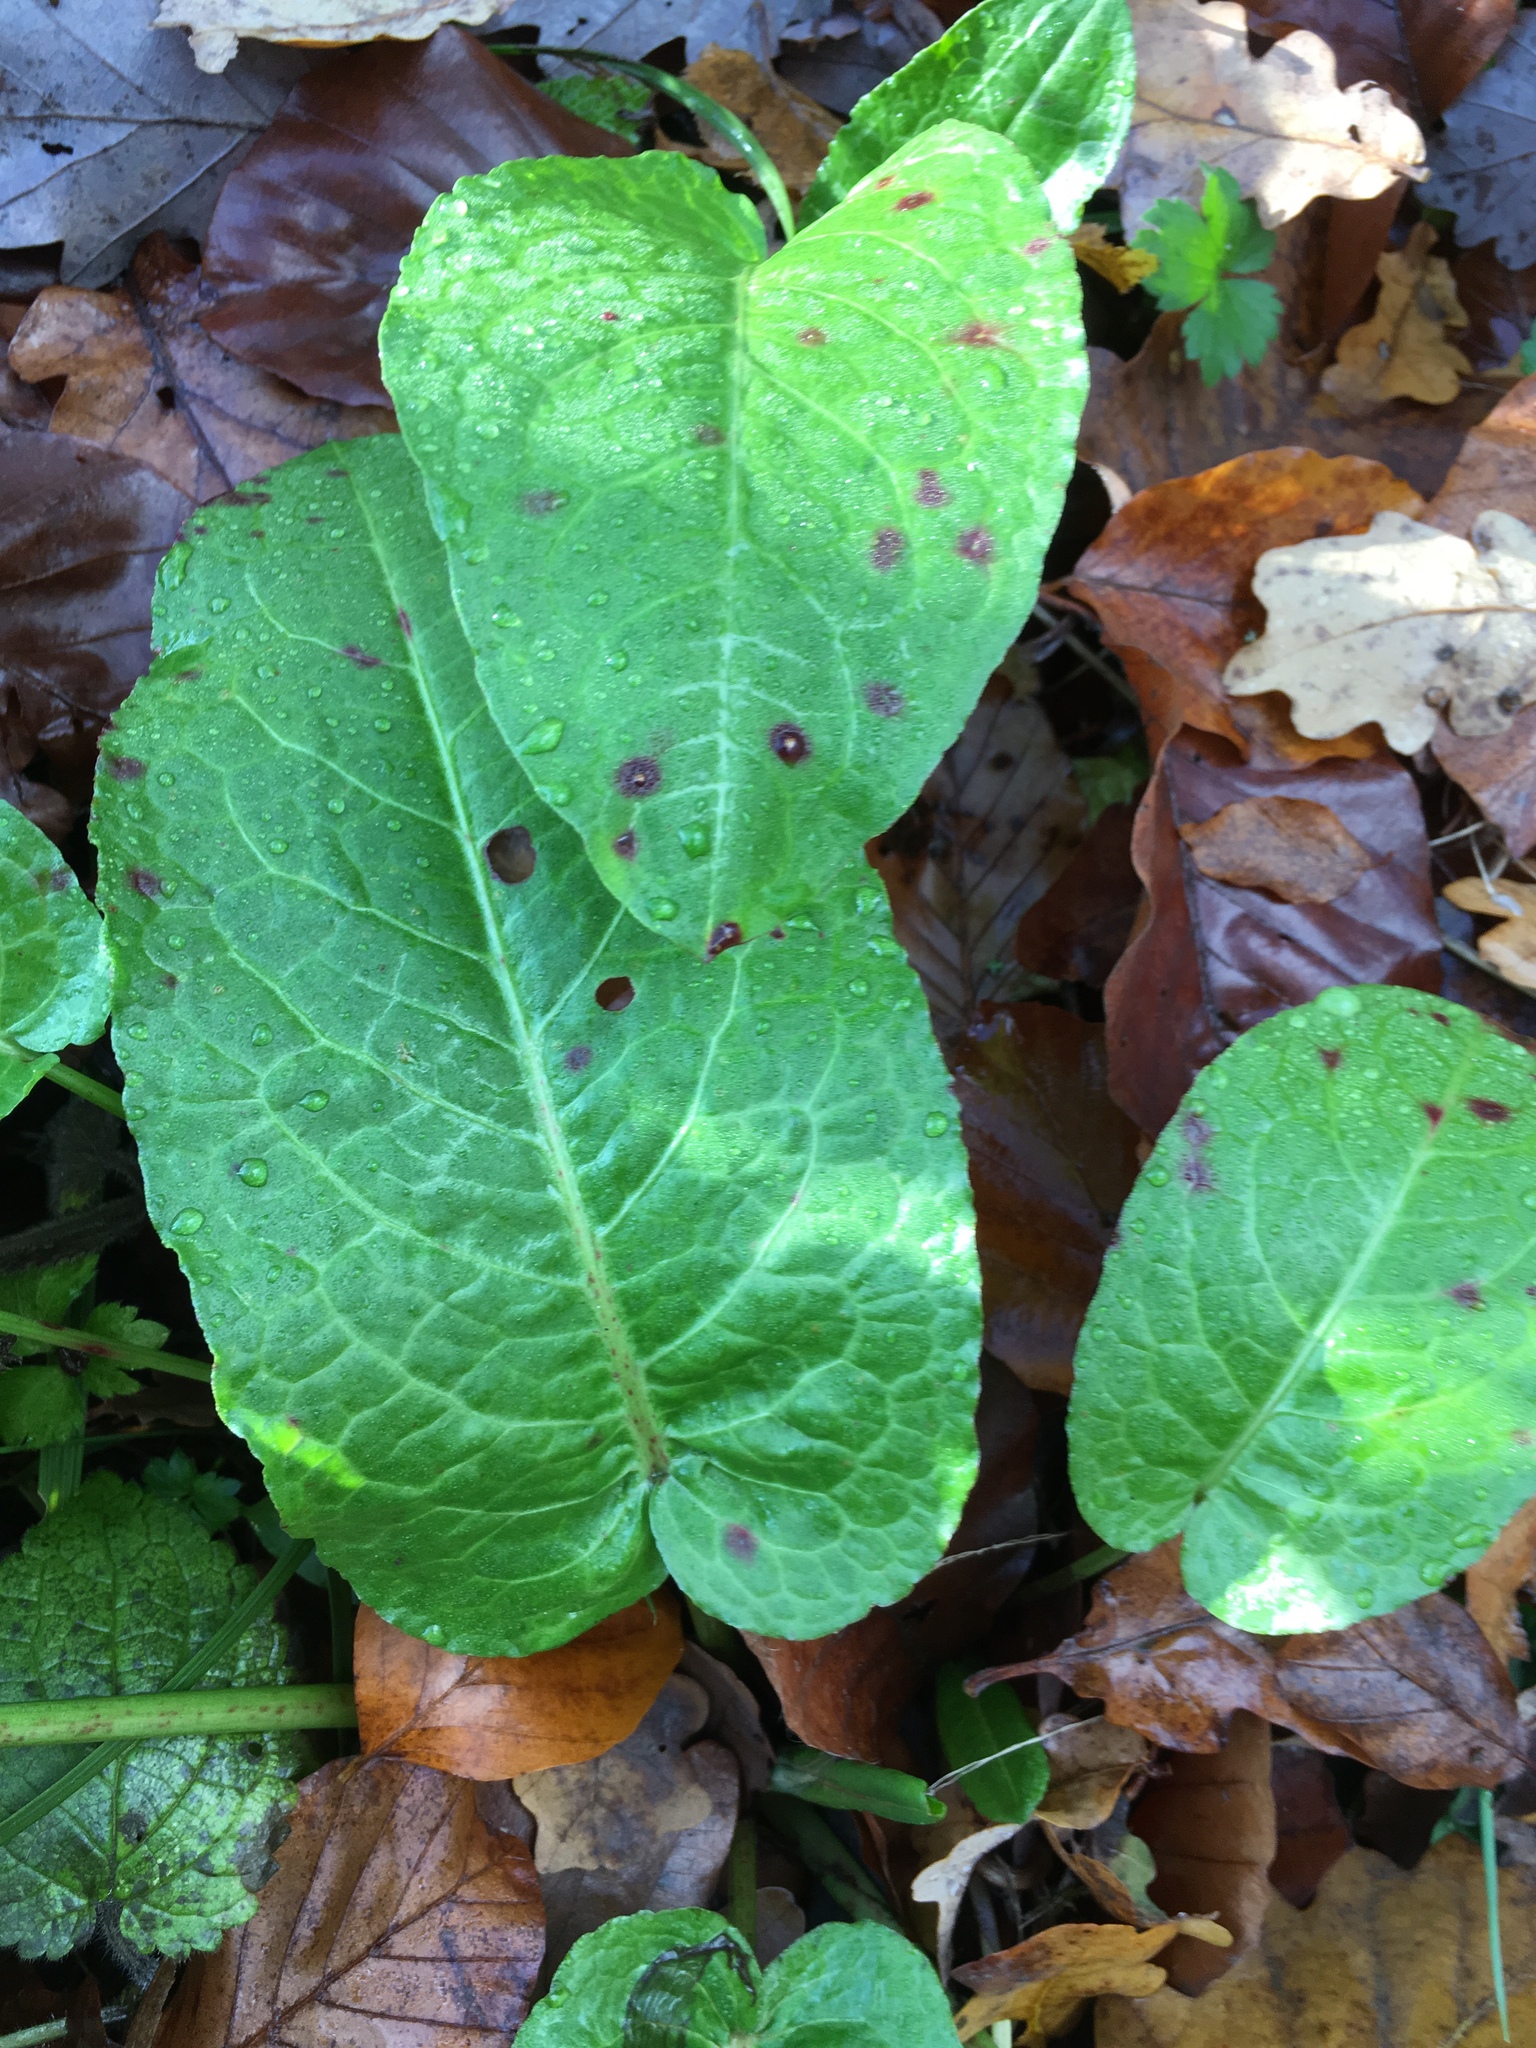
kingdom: Plantae
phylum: Tracheophyta
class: Magnoliopsida
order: Caryophyllales
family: Polygonaceae
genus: Rumex
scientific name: Rumex obtusifolius
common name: Bitter dock
